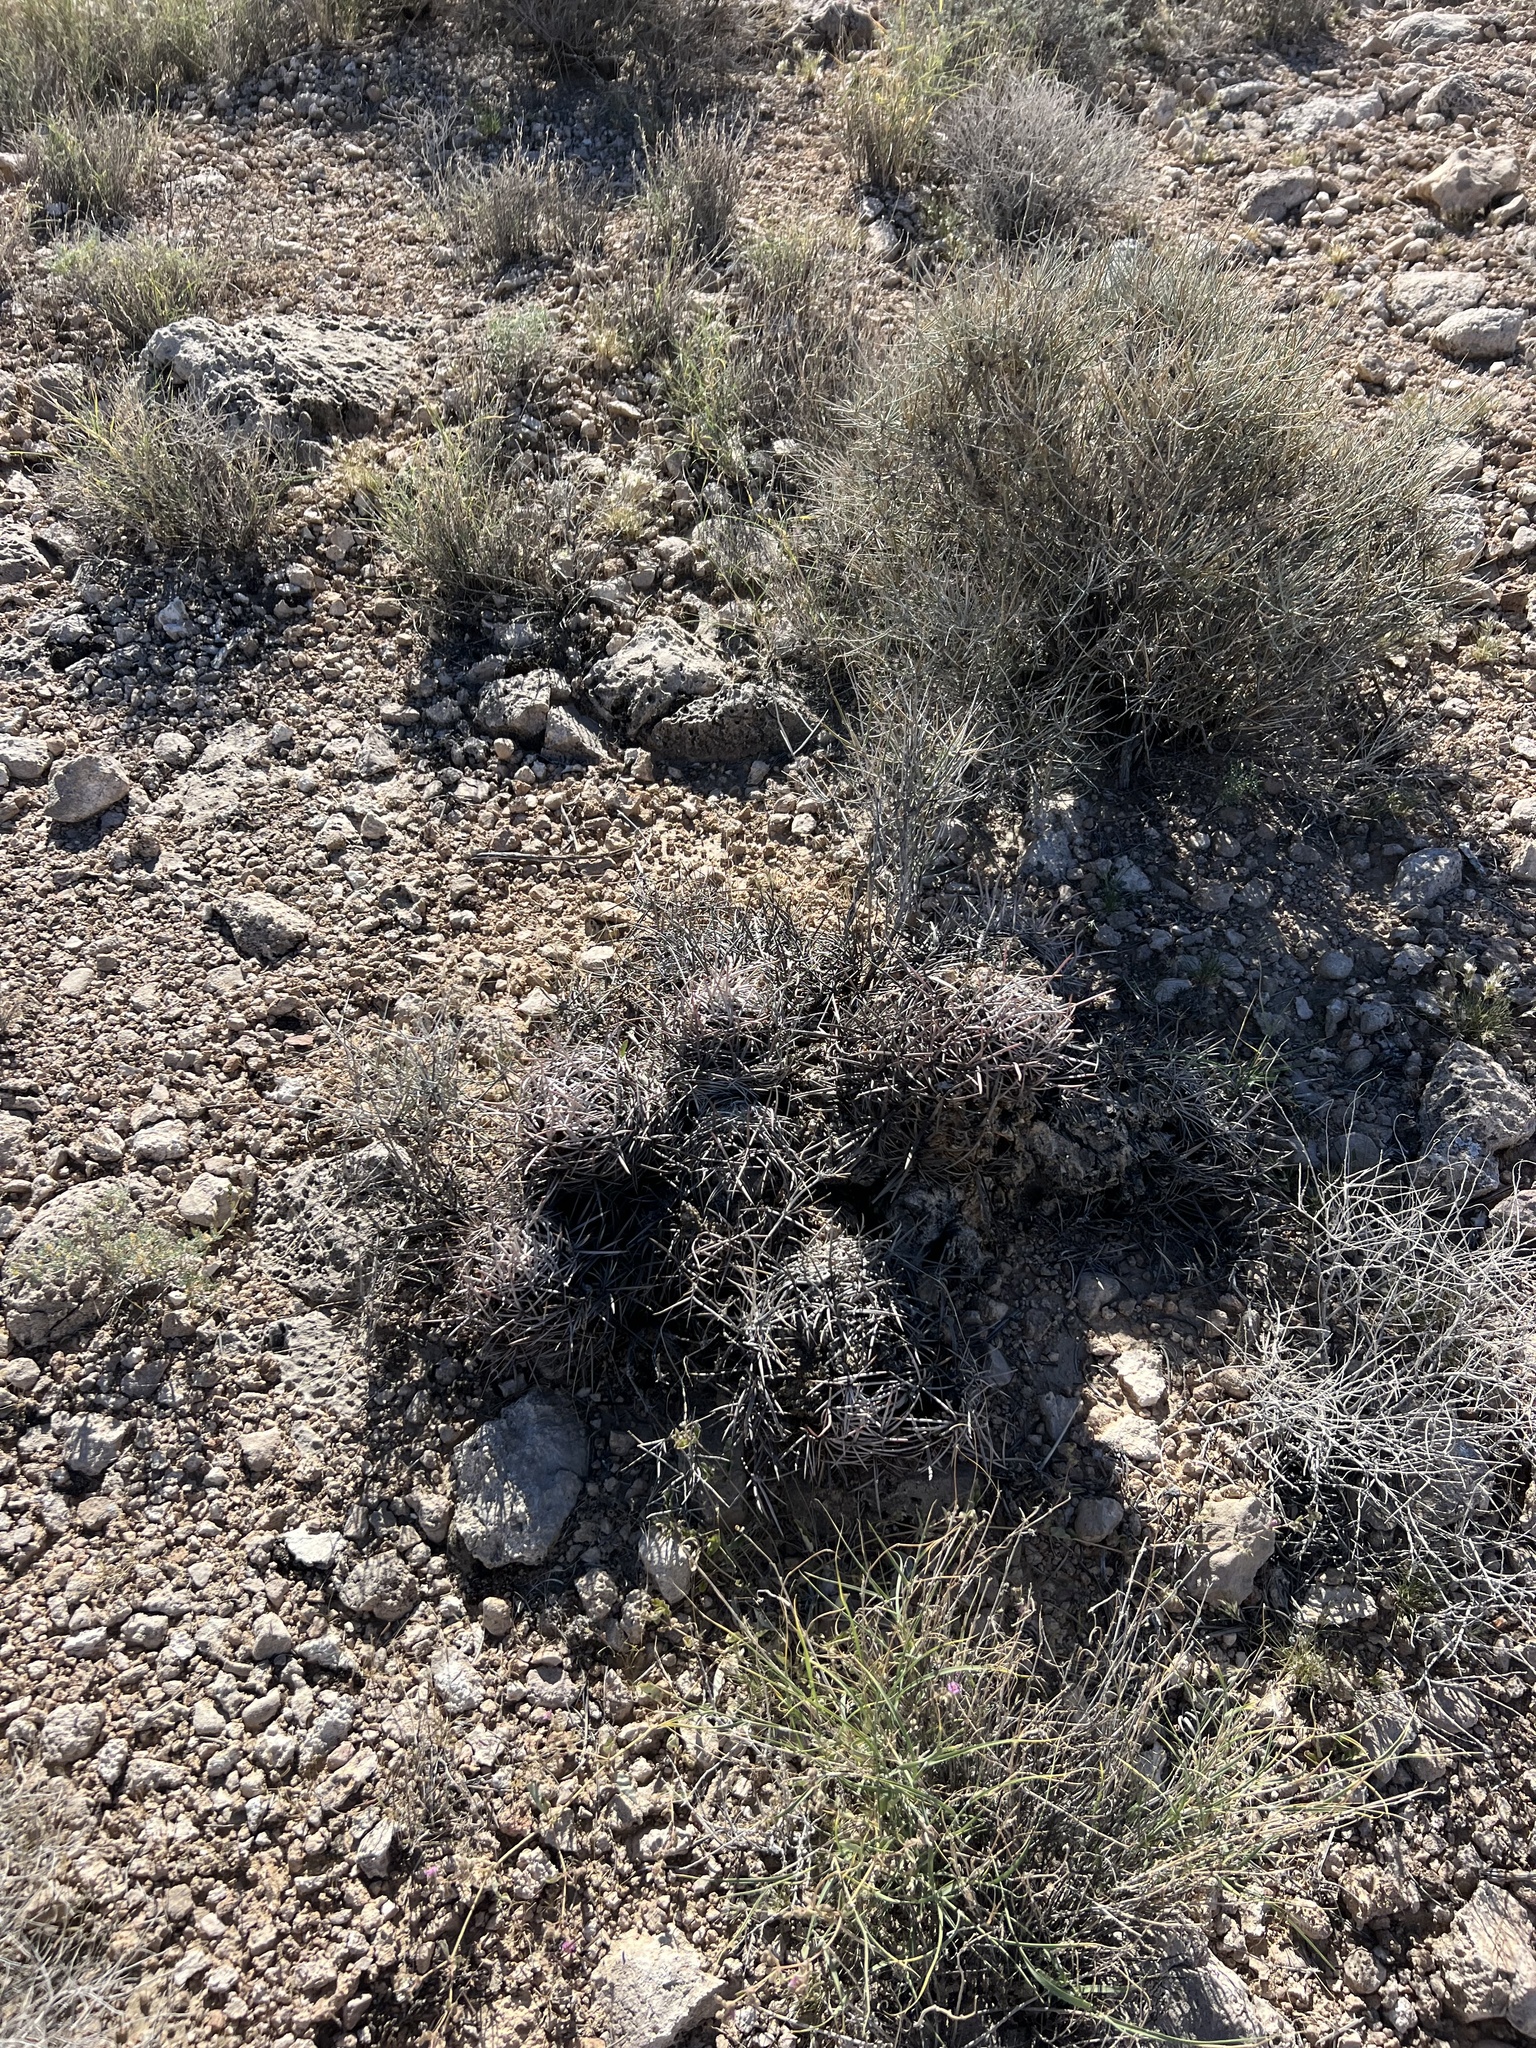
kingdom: Plantae
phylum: Tracheophyta
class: Magnoliopsida
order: Caryophyllales
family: Cactaceae
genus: Echinocactus
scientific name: Echinocactus polycephalus
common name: Cottontop cactus
